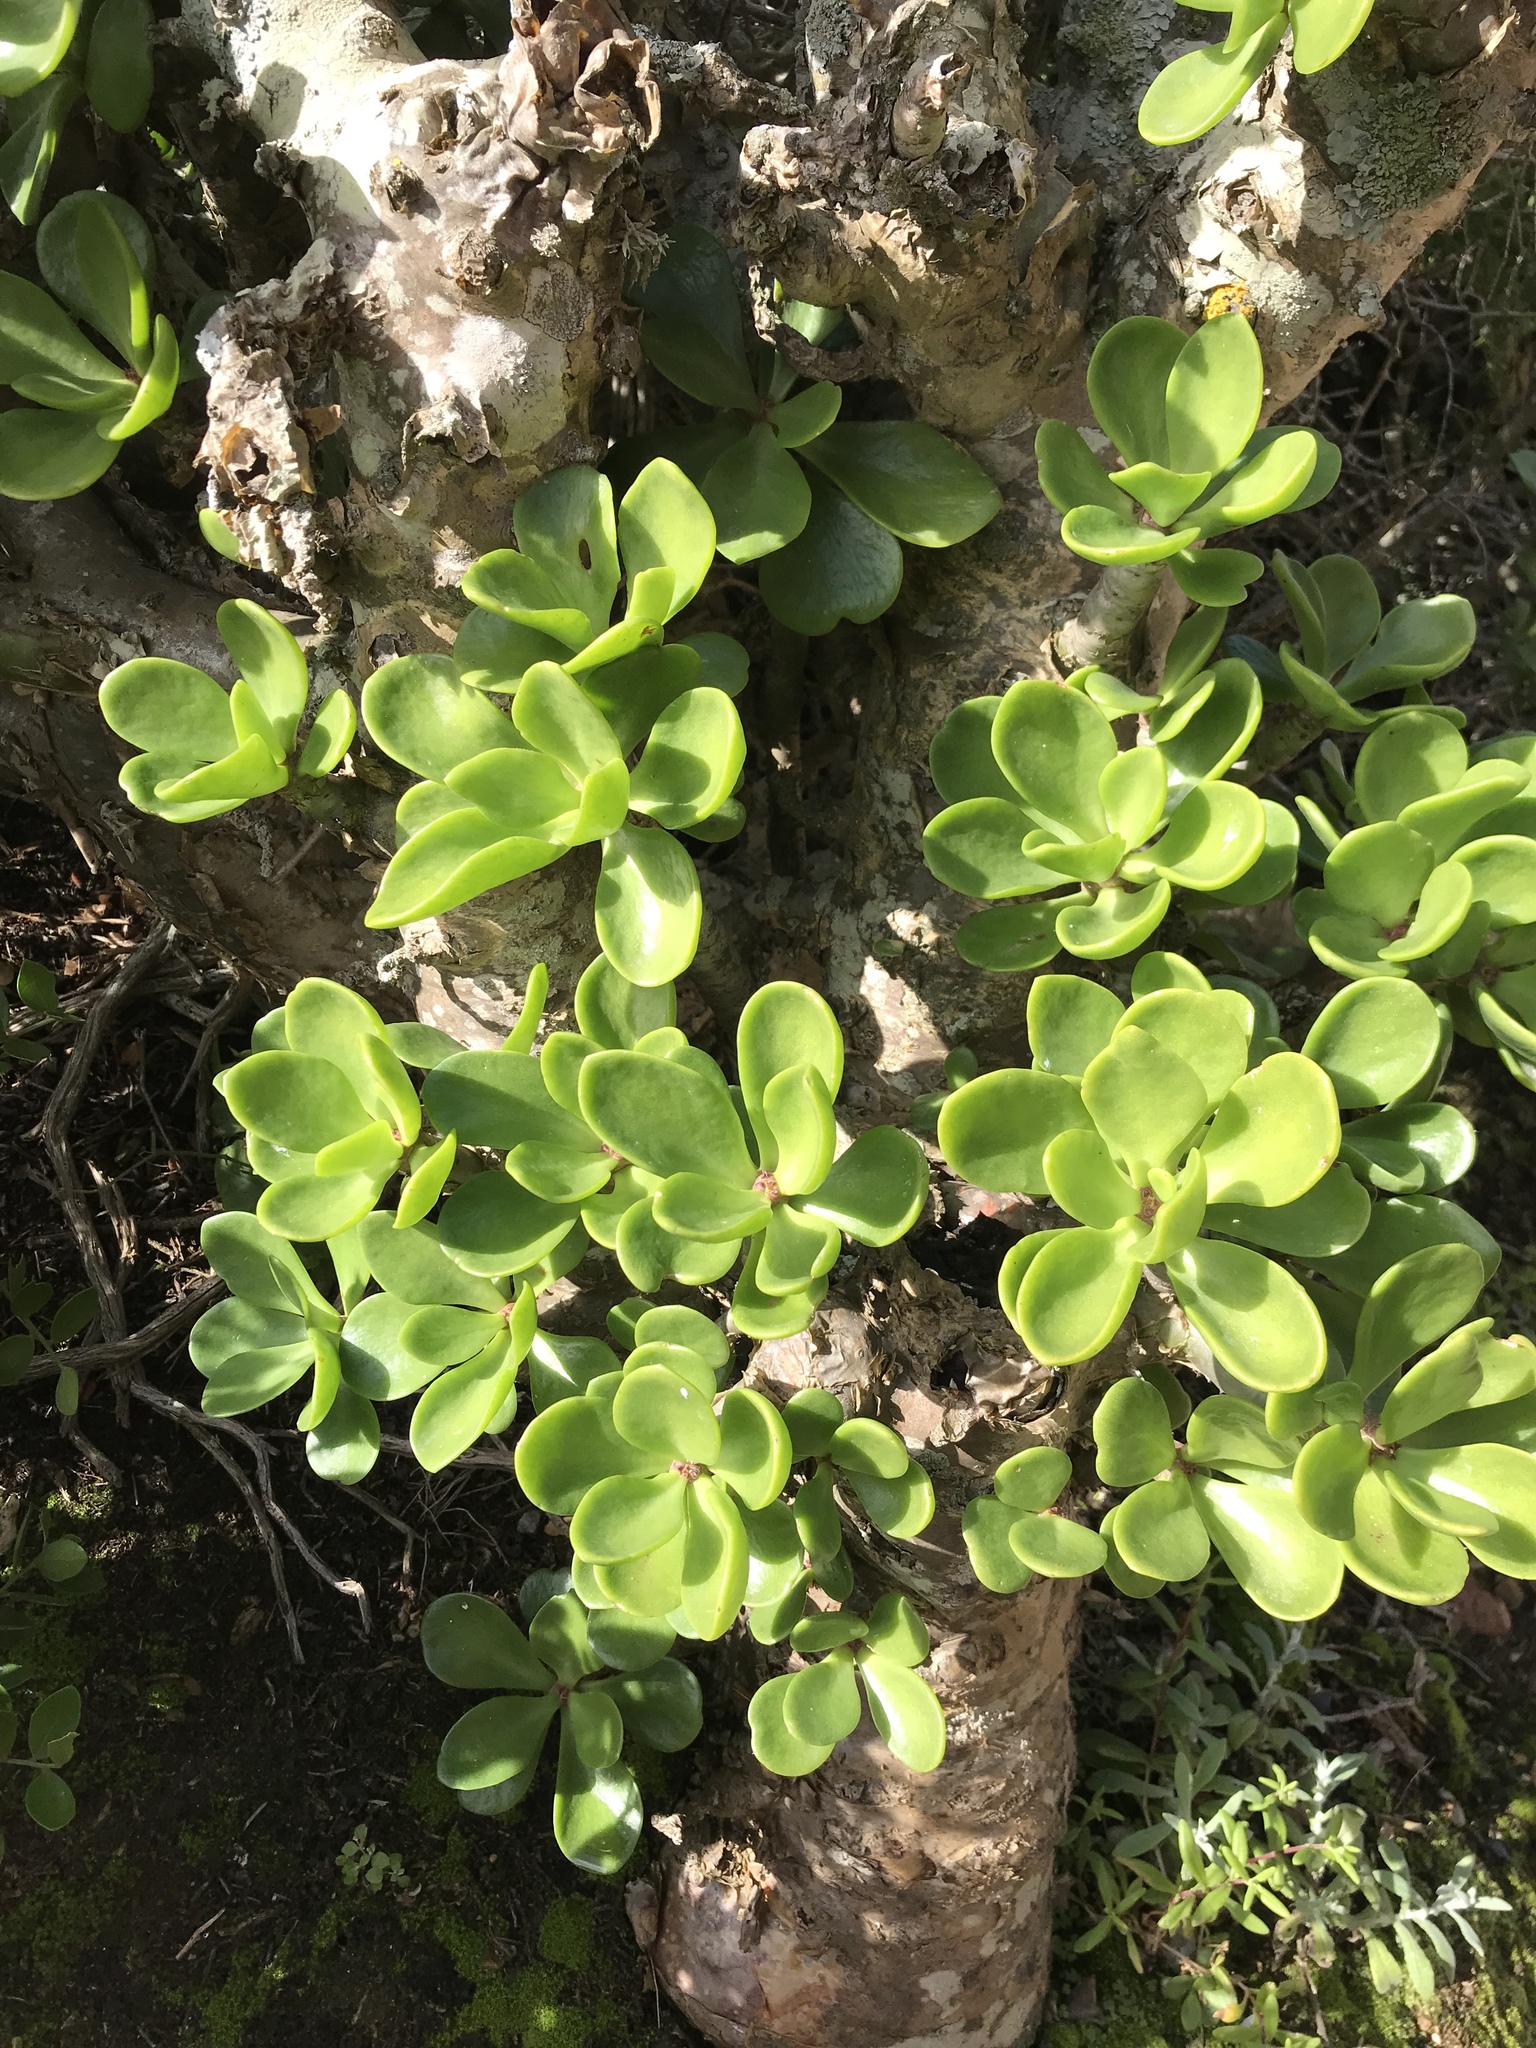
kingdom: Plantae
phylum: Tracheophyta
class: Magnoliopsida
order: Saxifragales
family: Crassulaceae
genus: Tylecodon
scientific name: Tylecodon paniculatus
